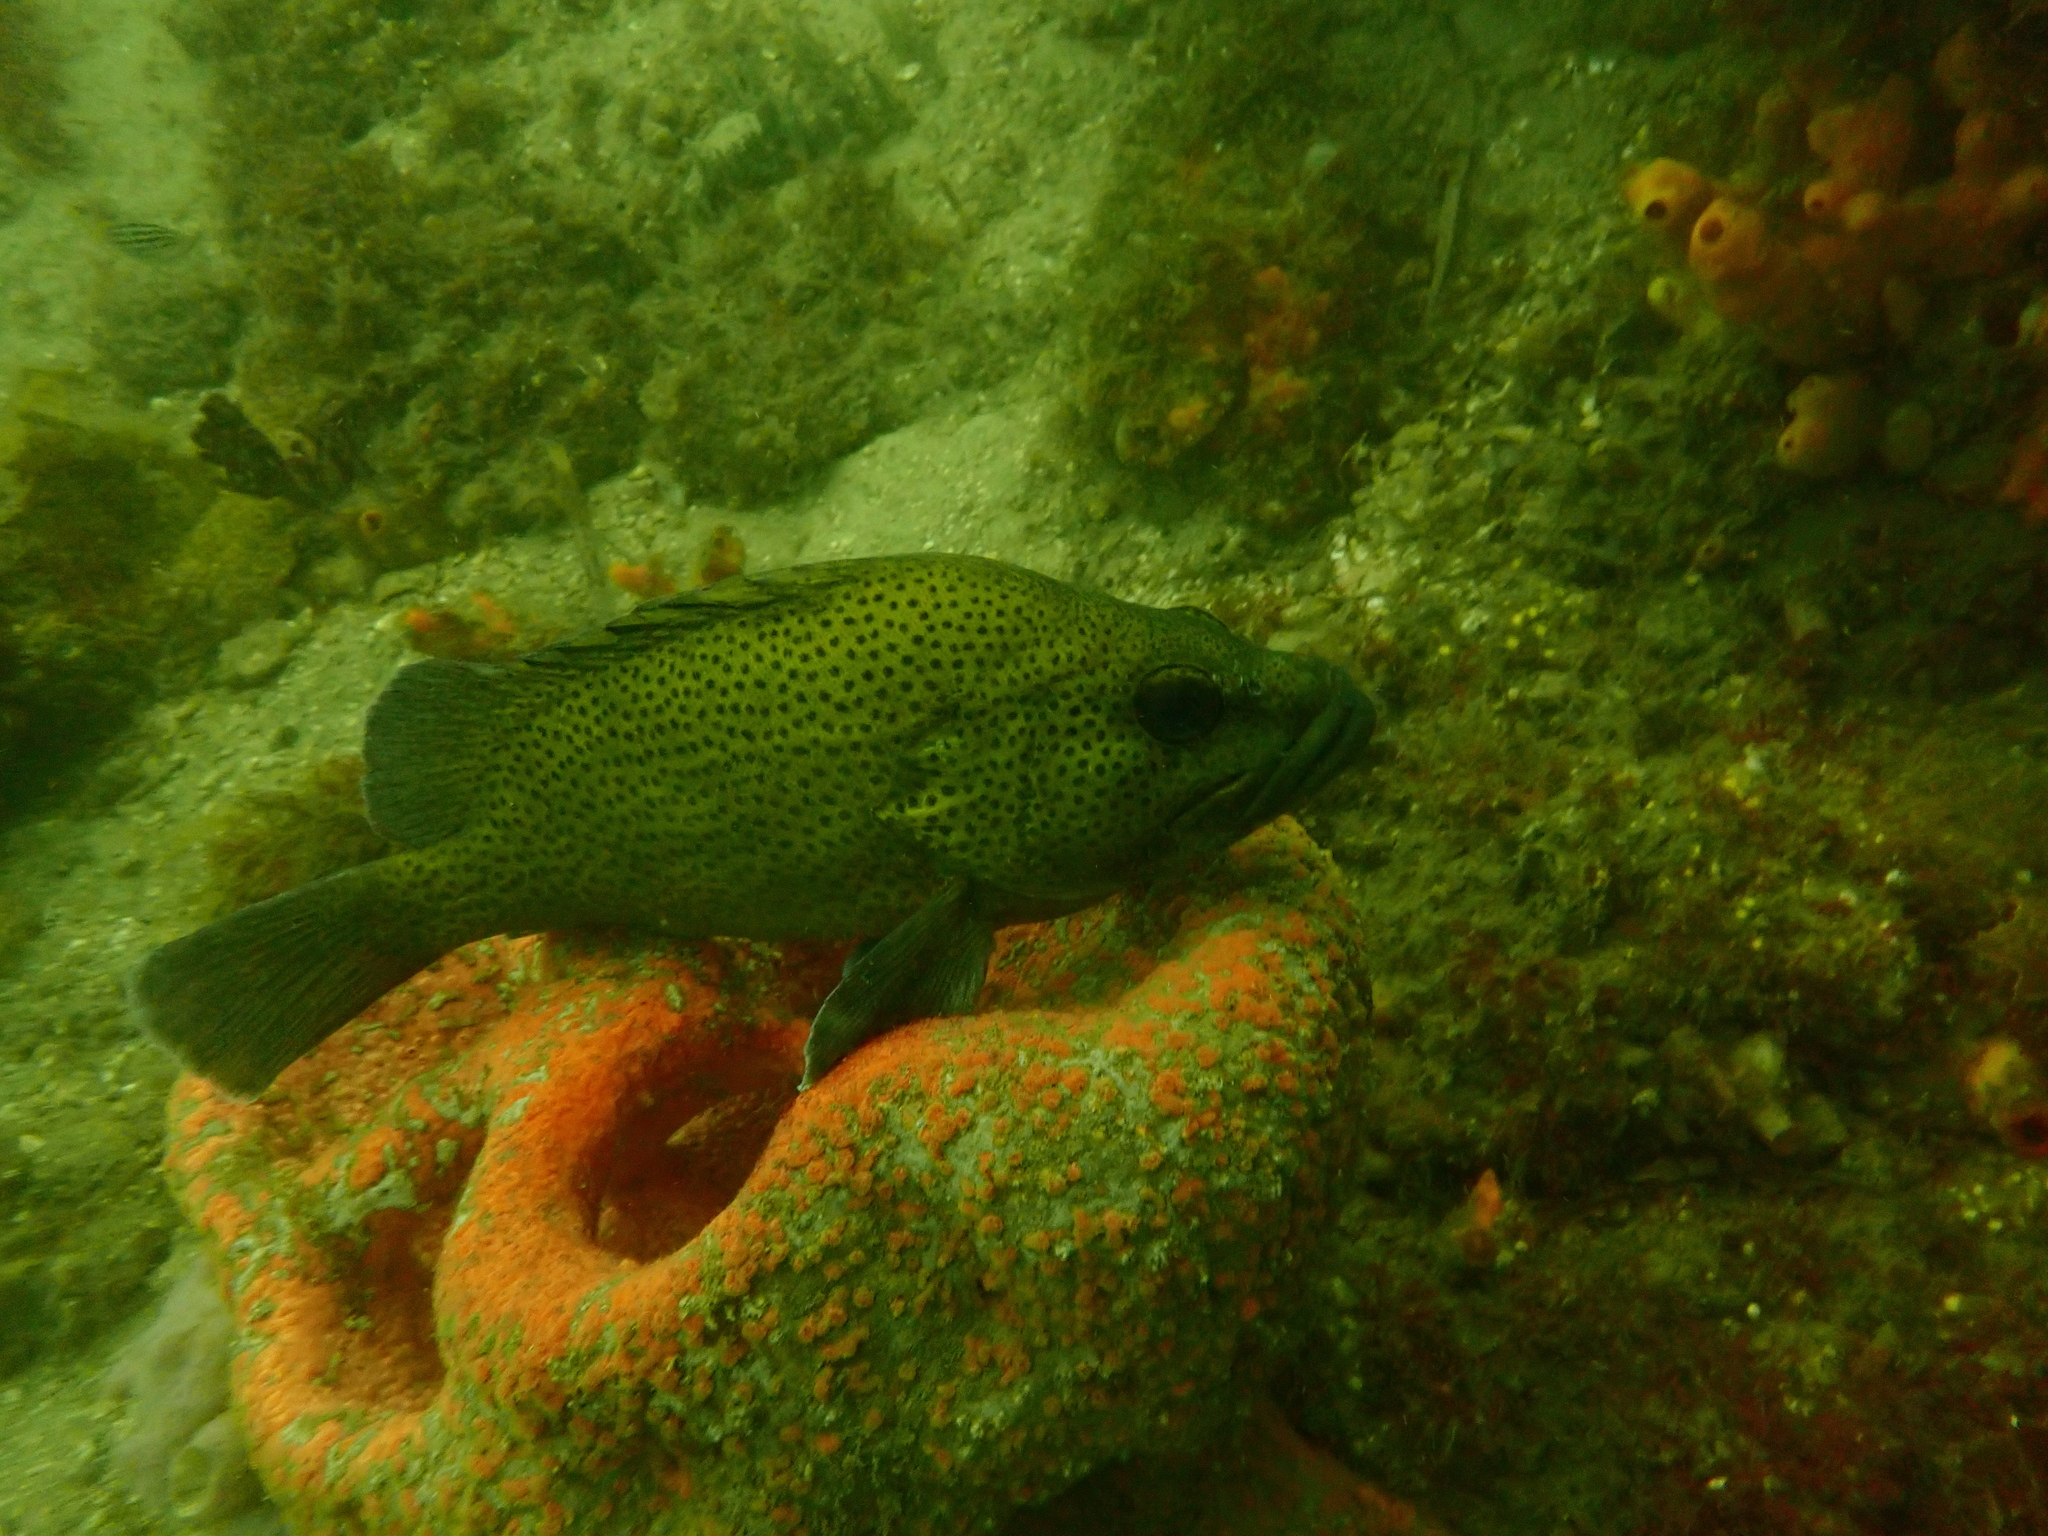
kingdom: Animalia
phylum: Chordata
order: Perciformes
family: Serranidae
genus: Acanthistius
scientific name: Acanthistius ocellatus
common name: Eastern wirrah
